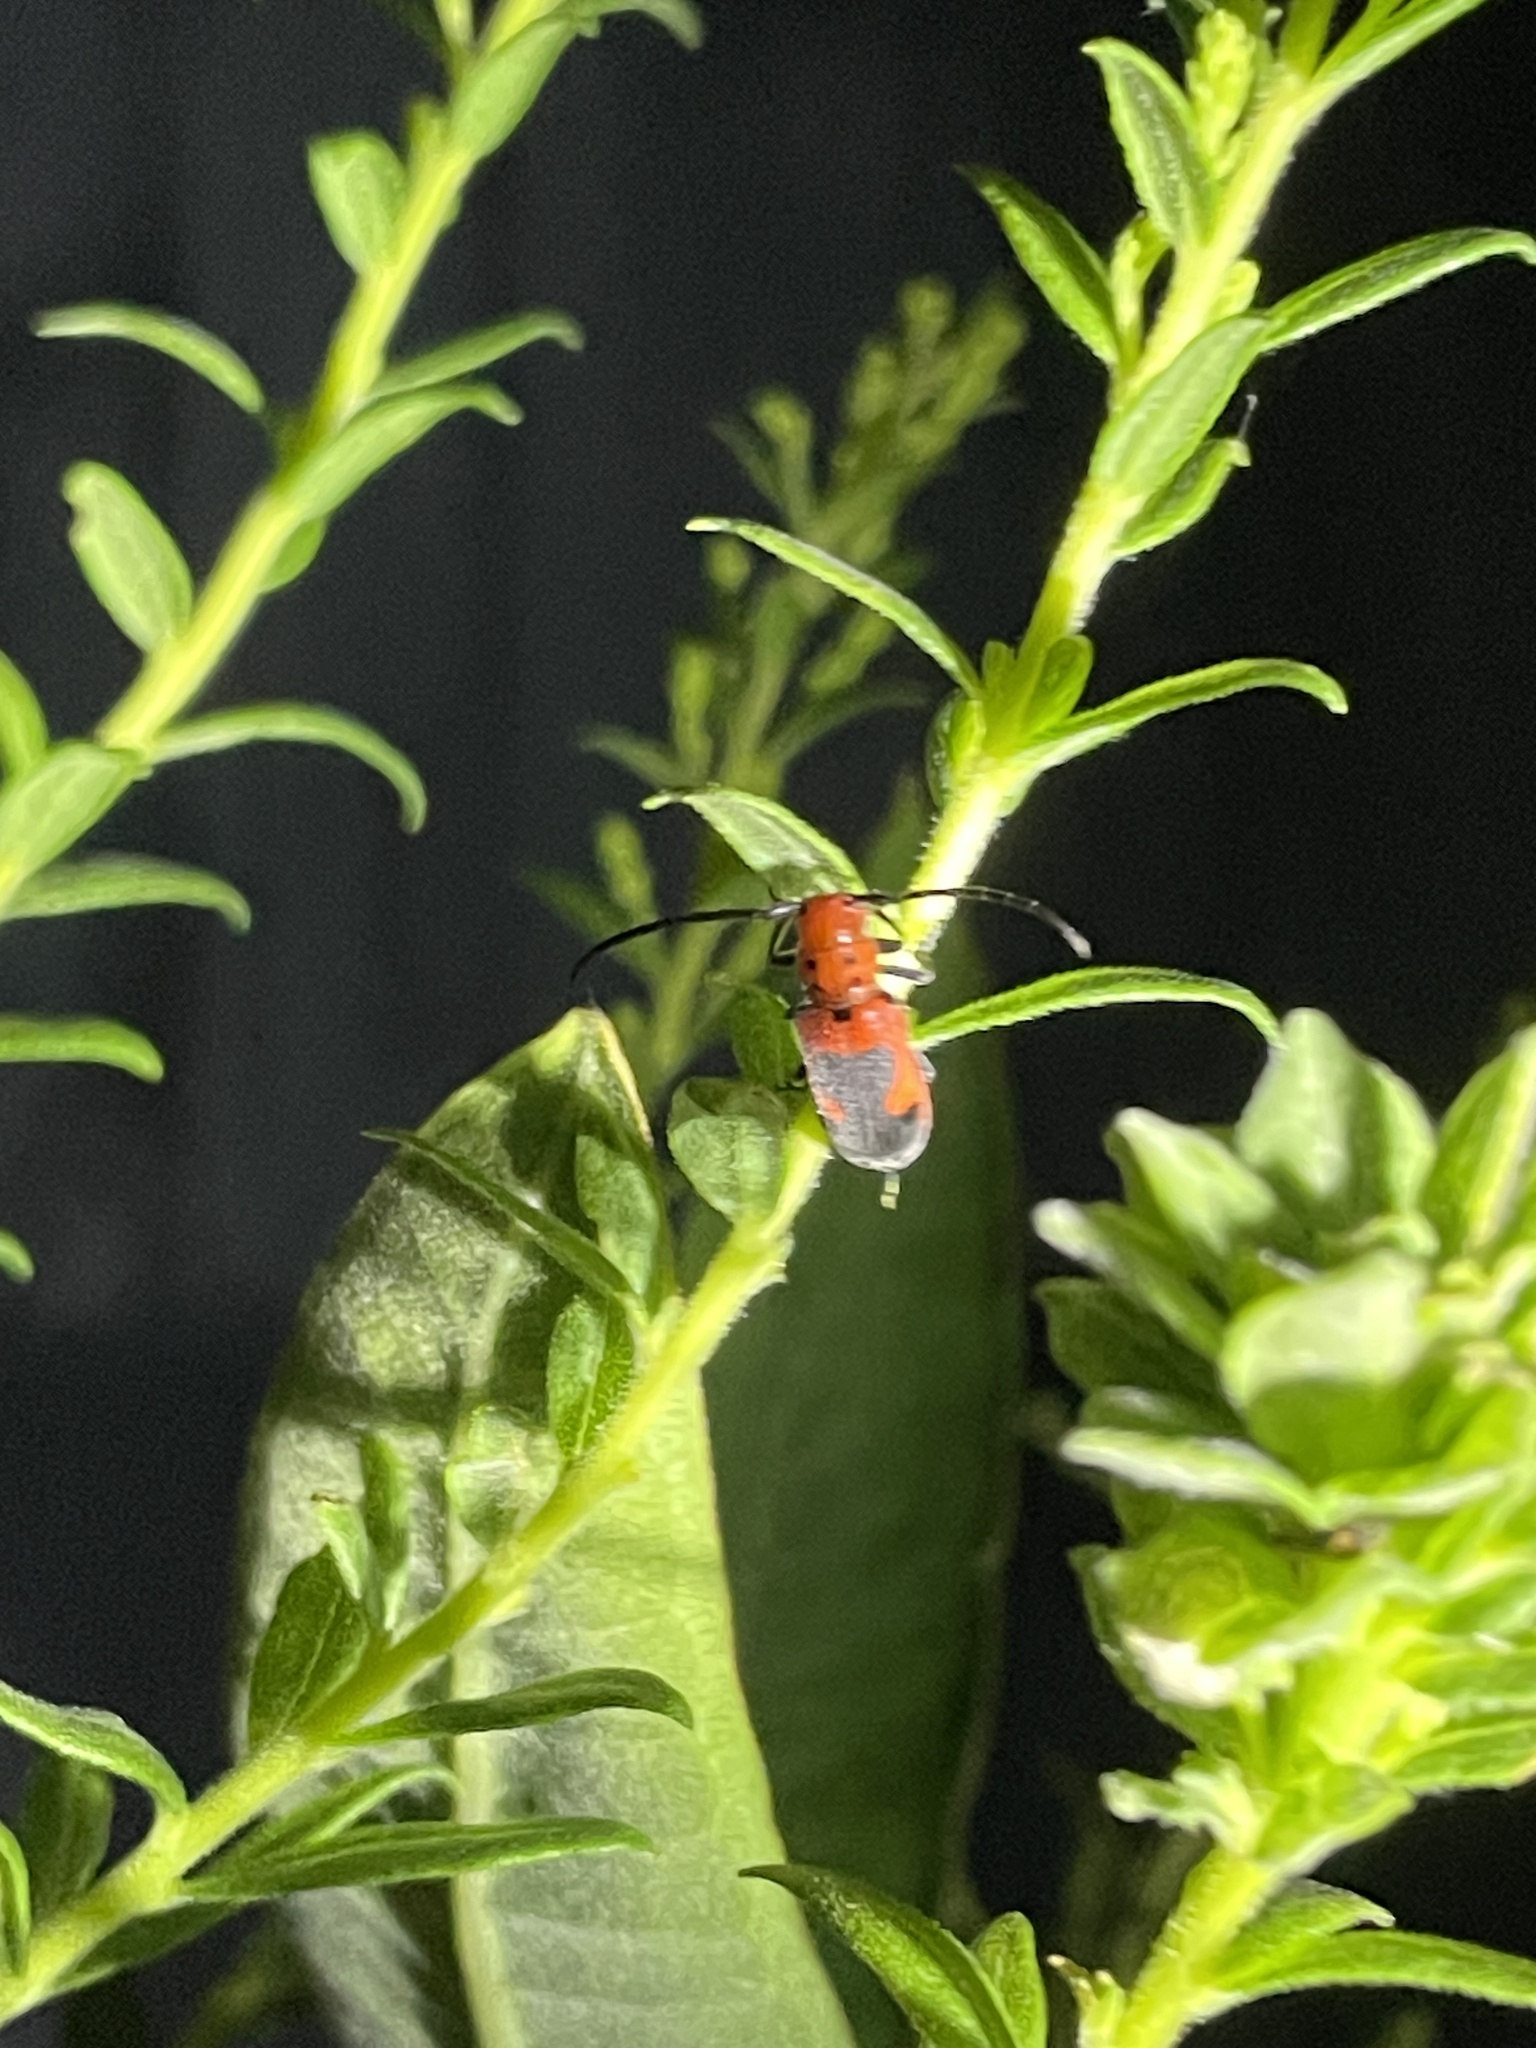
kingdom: Animalia
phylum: Arthropoda
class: Insecta
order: Coleoptera
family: Cerambycidae
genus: Tetraopes
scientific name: Tetraopes melanurus
